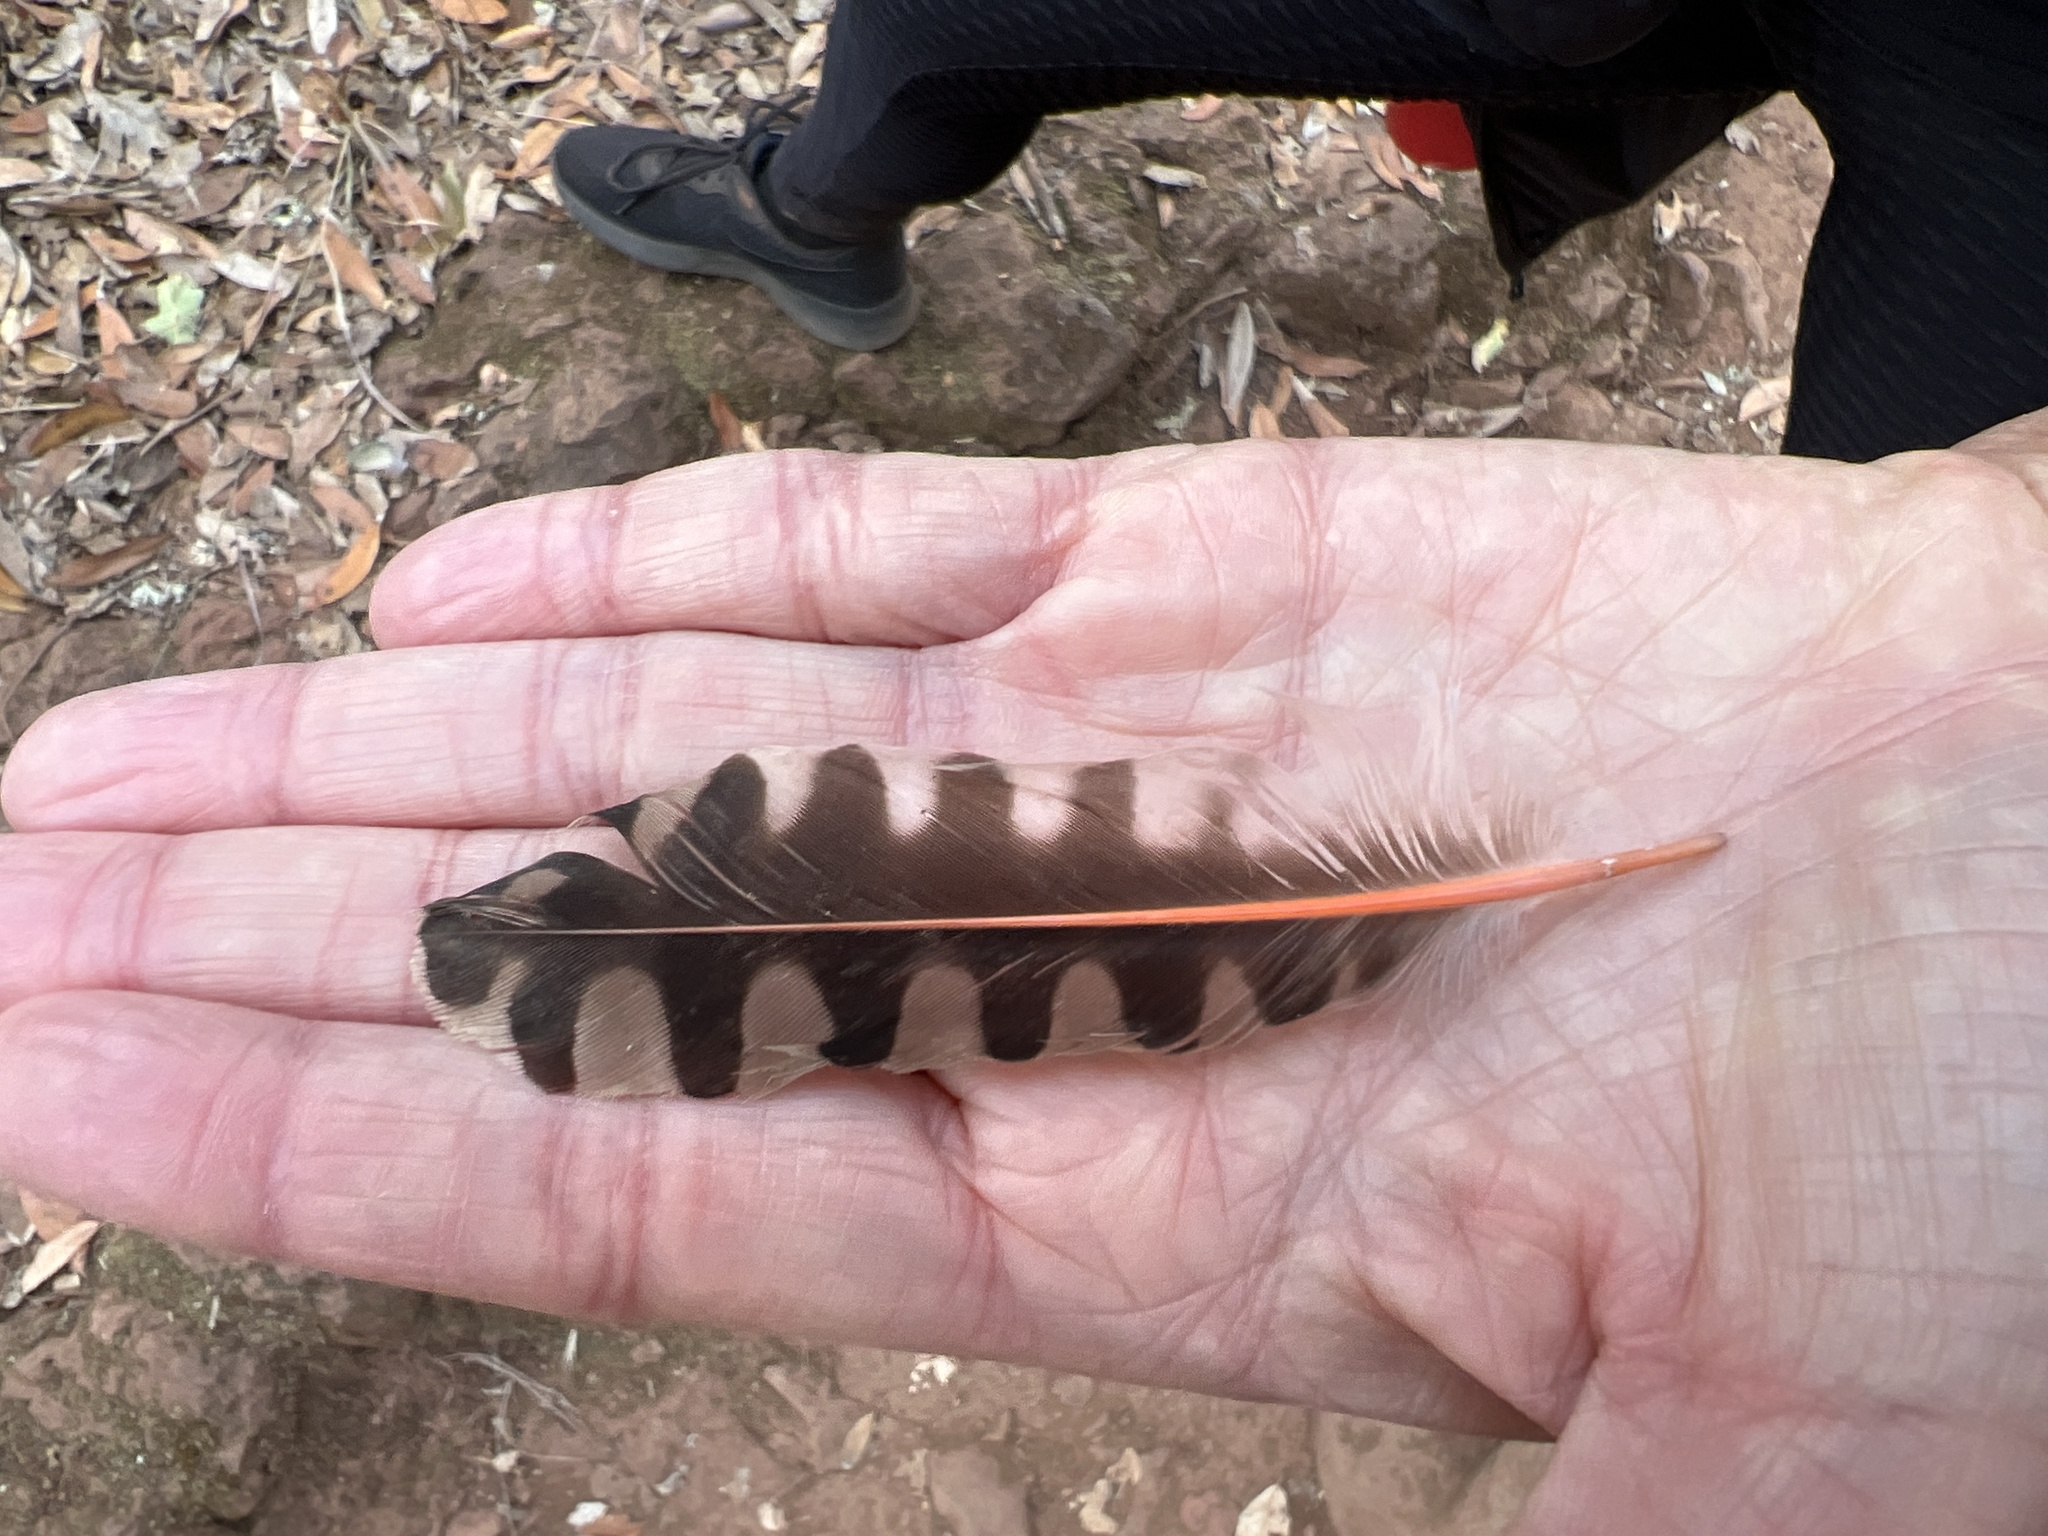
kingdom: Animalia
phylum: Chordata
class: Aves
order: Piciformes
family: Picidae
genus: Colaptes
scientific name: Colaptes auratus
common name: Northern flicker
